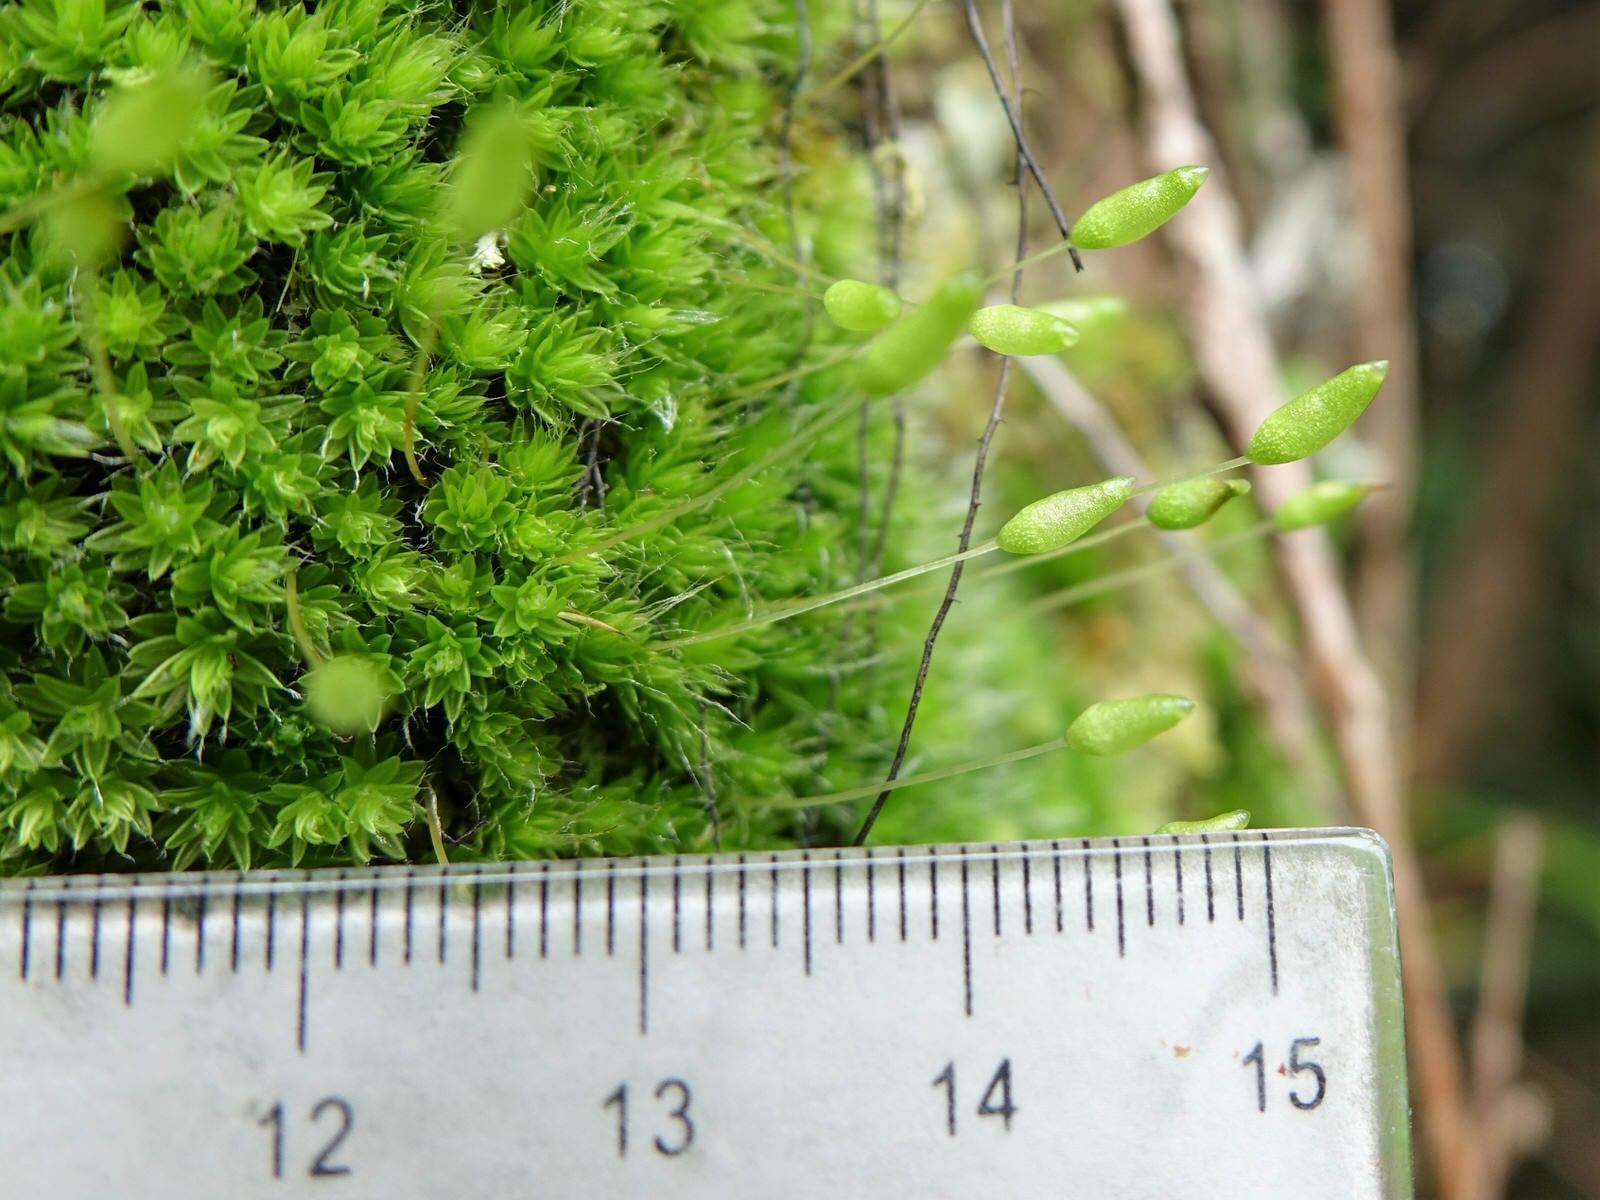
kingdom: Plantae
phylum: Bryophyta
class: Bryopsida
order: Bryales
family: Leptostomataceae
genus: Leptostomum
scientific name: Leptostomum macrocarpon
